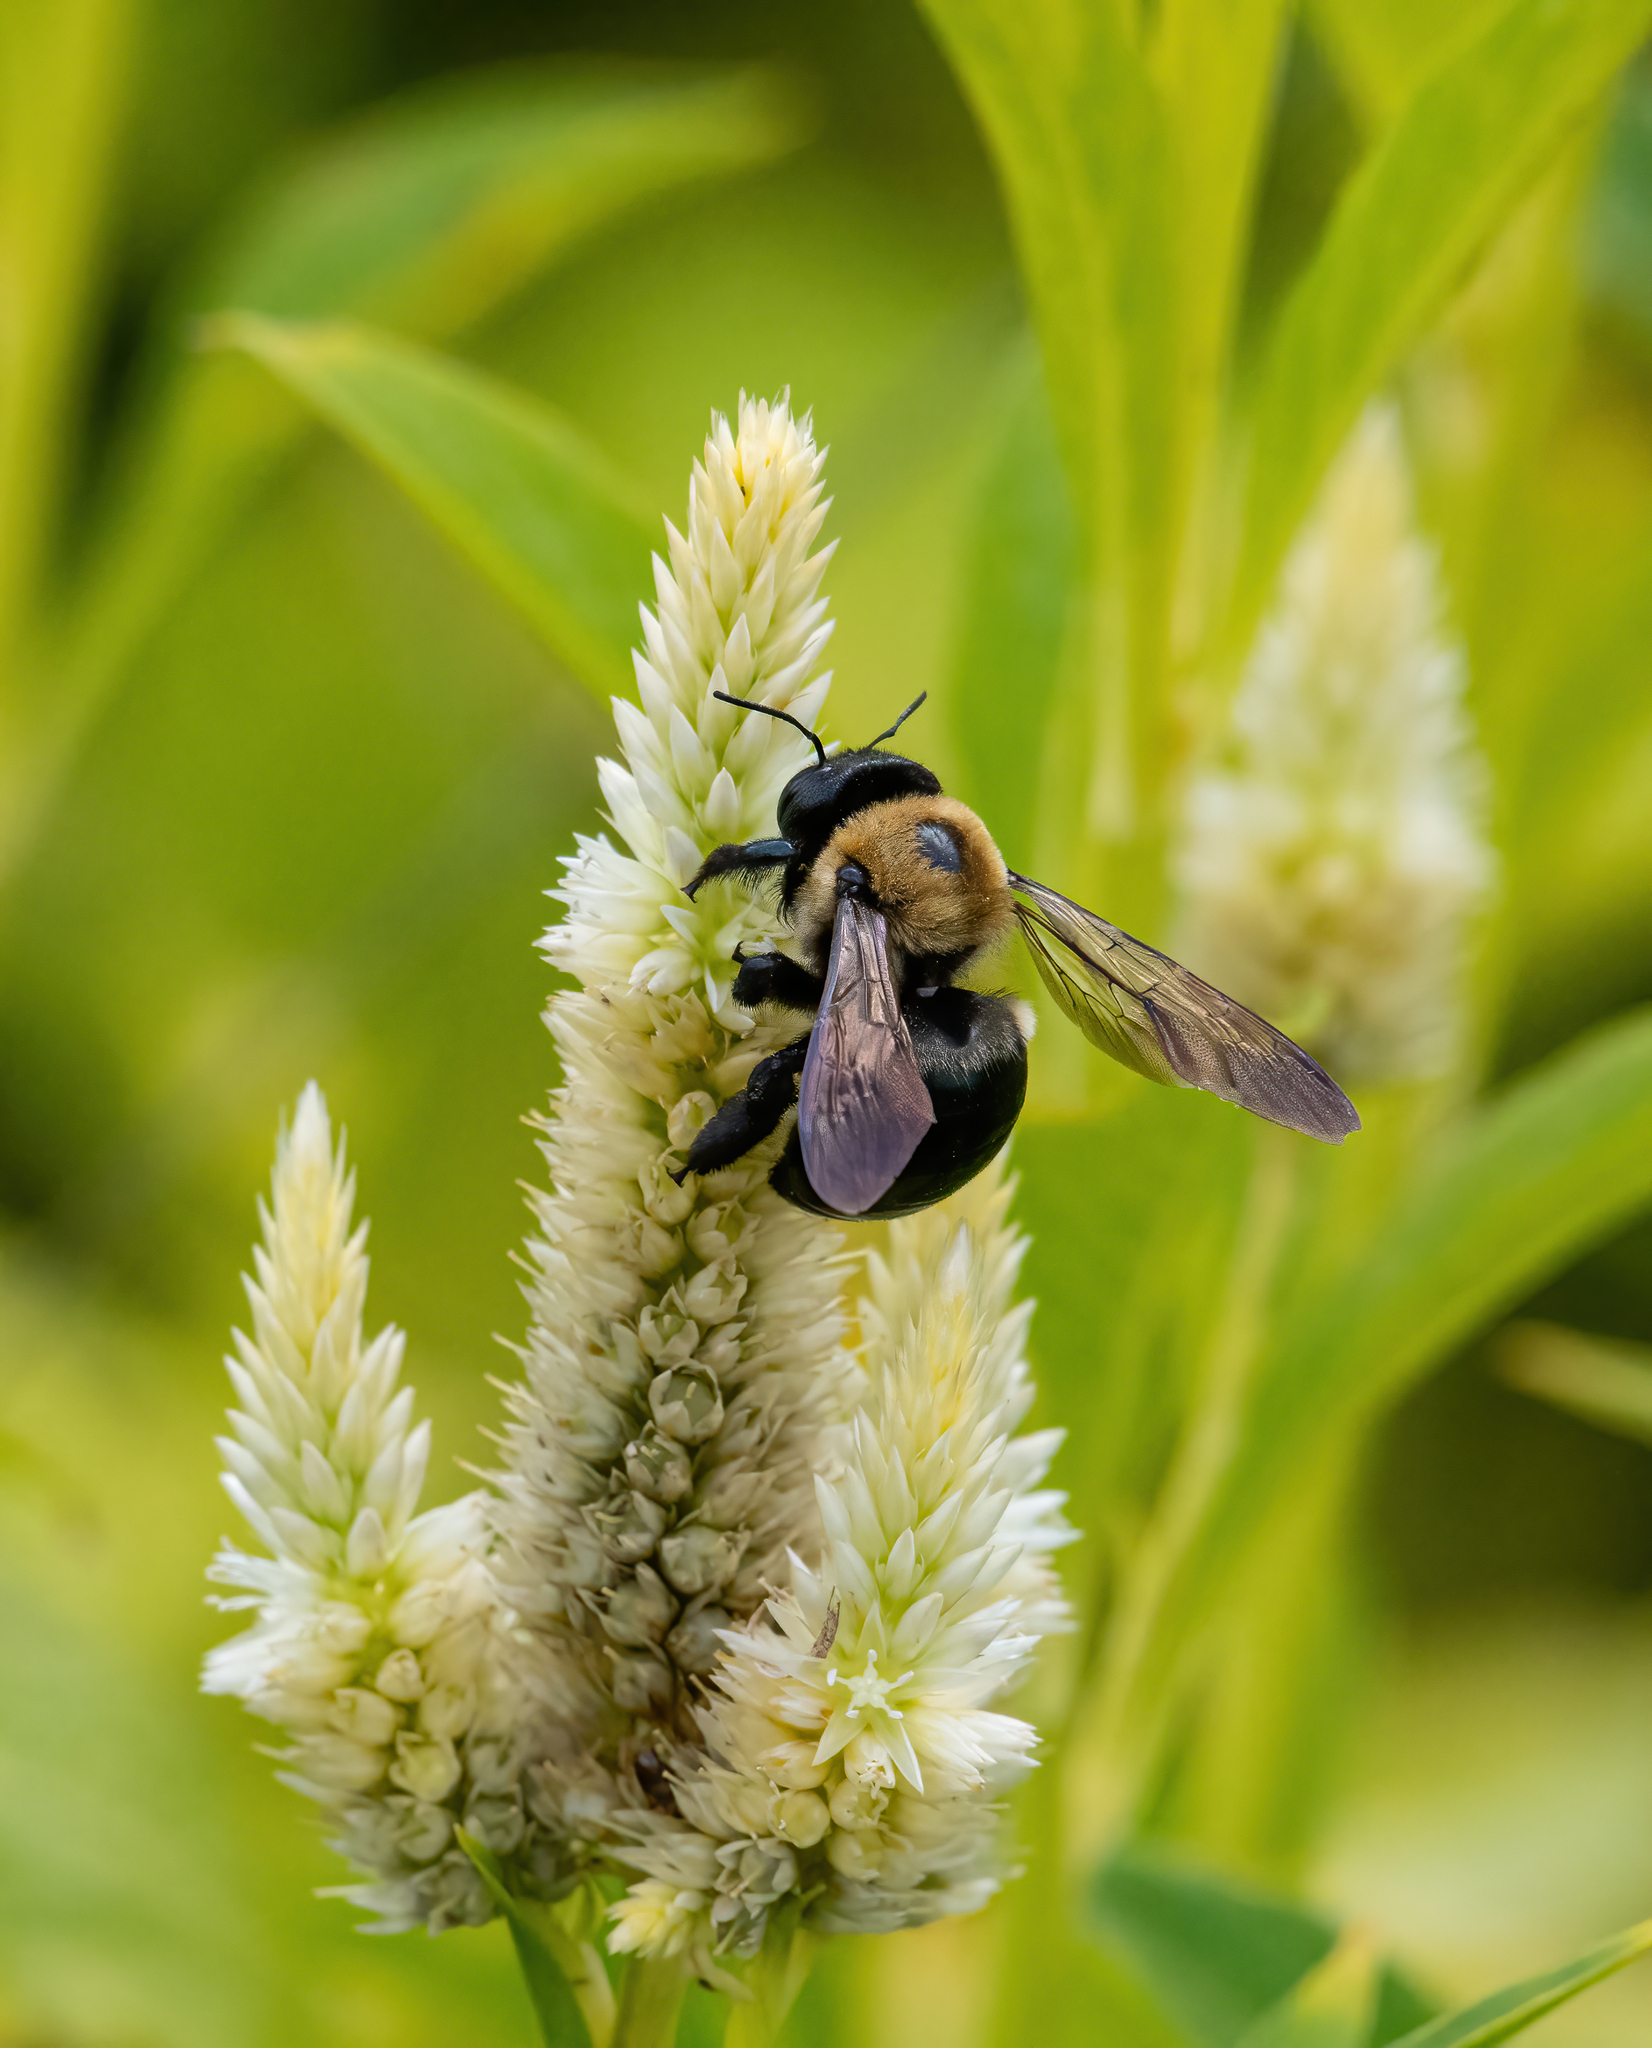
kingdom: Animalia
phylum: Arthropoda
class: Insecta
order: Hymenoptera
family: Apidae
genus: Xylocopa
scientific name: Xylocopa virginica
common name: Carpenter bee
